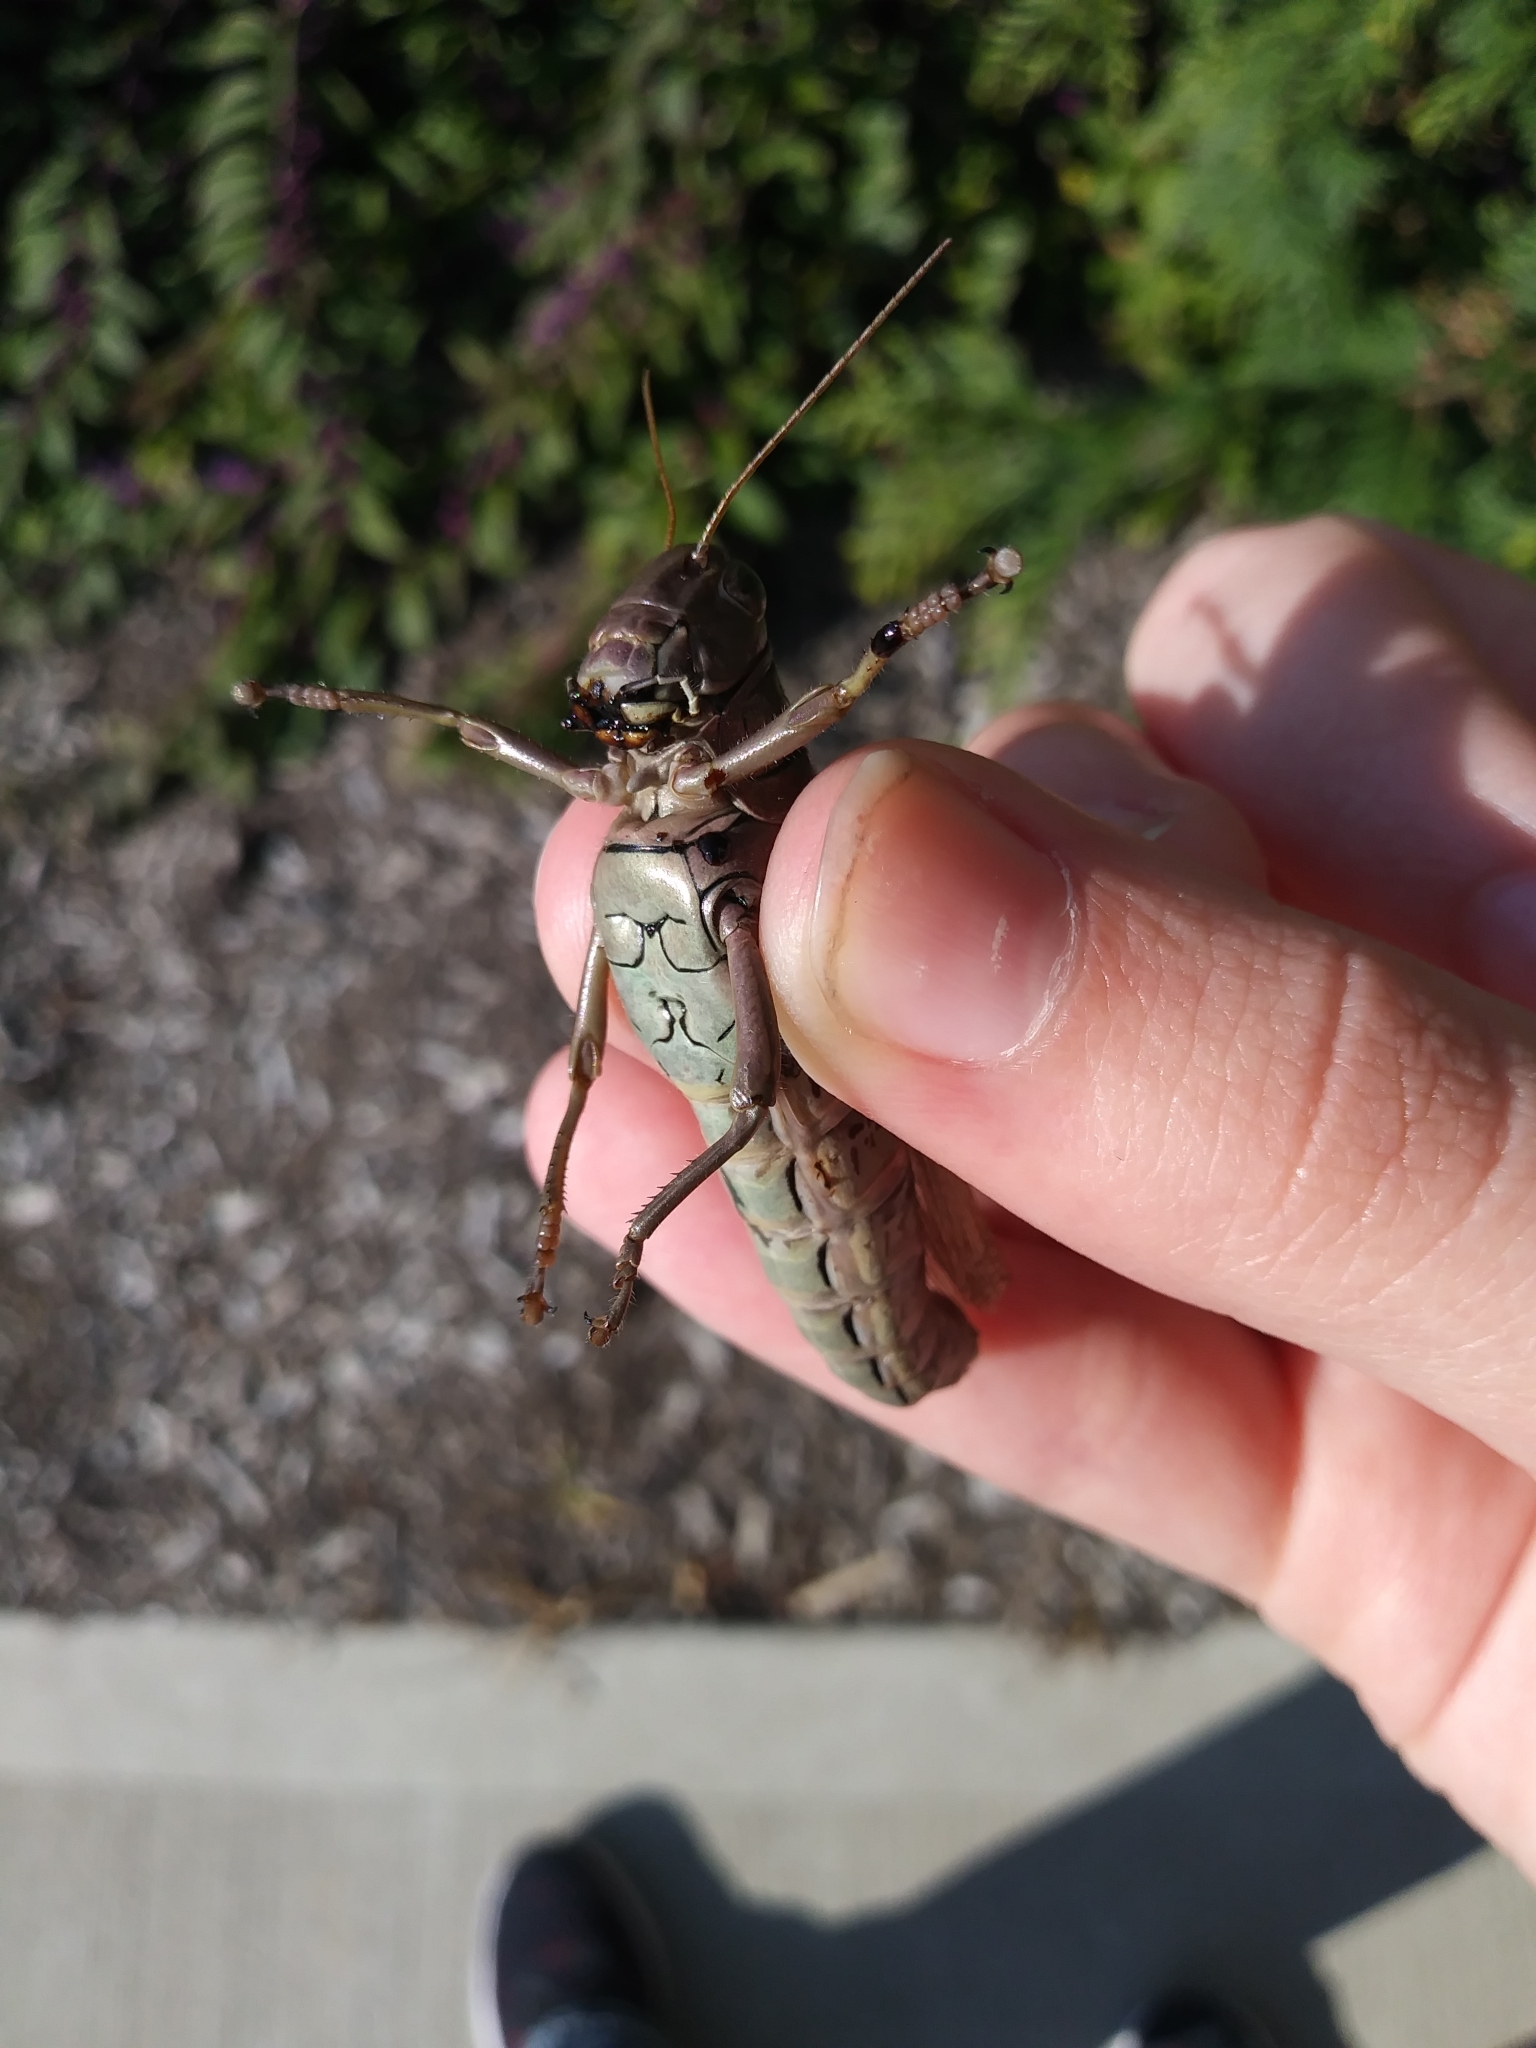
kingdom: Animalia
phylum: Arthropoda
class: Insecta
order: Orthoptera
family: Acrididae
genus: Melanoplus
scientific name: Melanoplus differentialis
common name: Differential grasshopper
